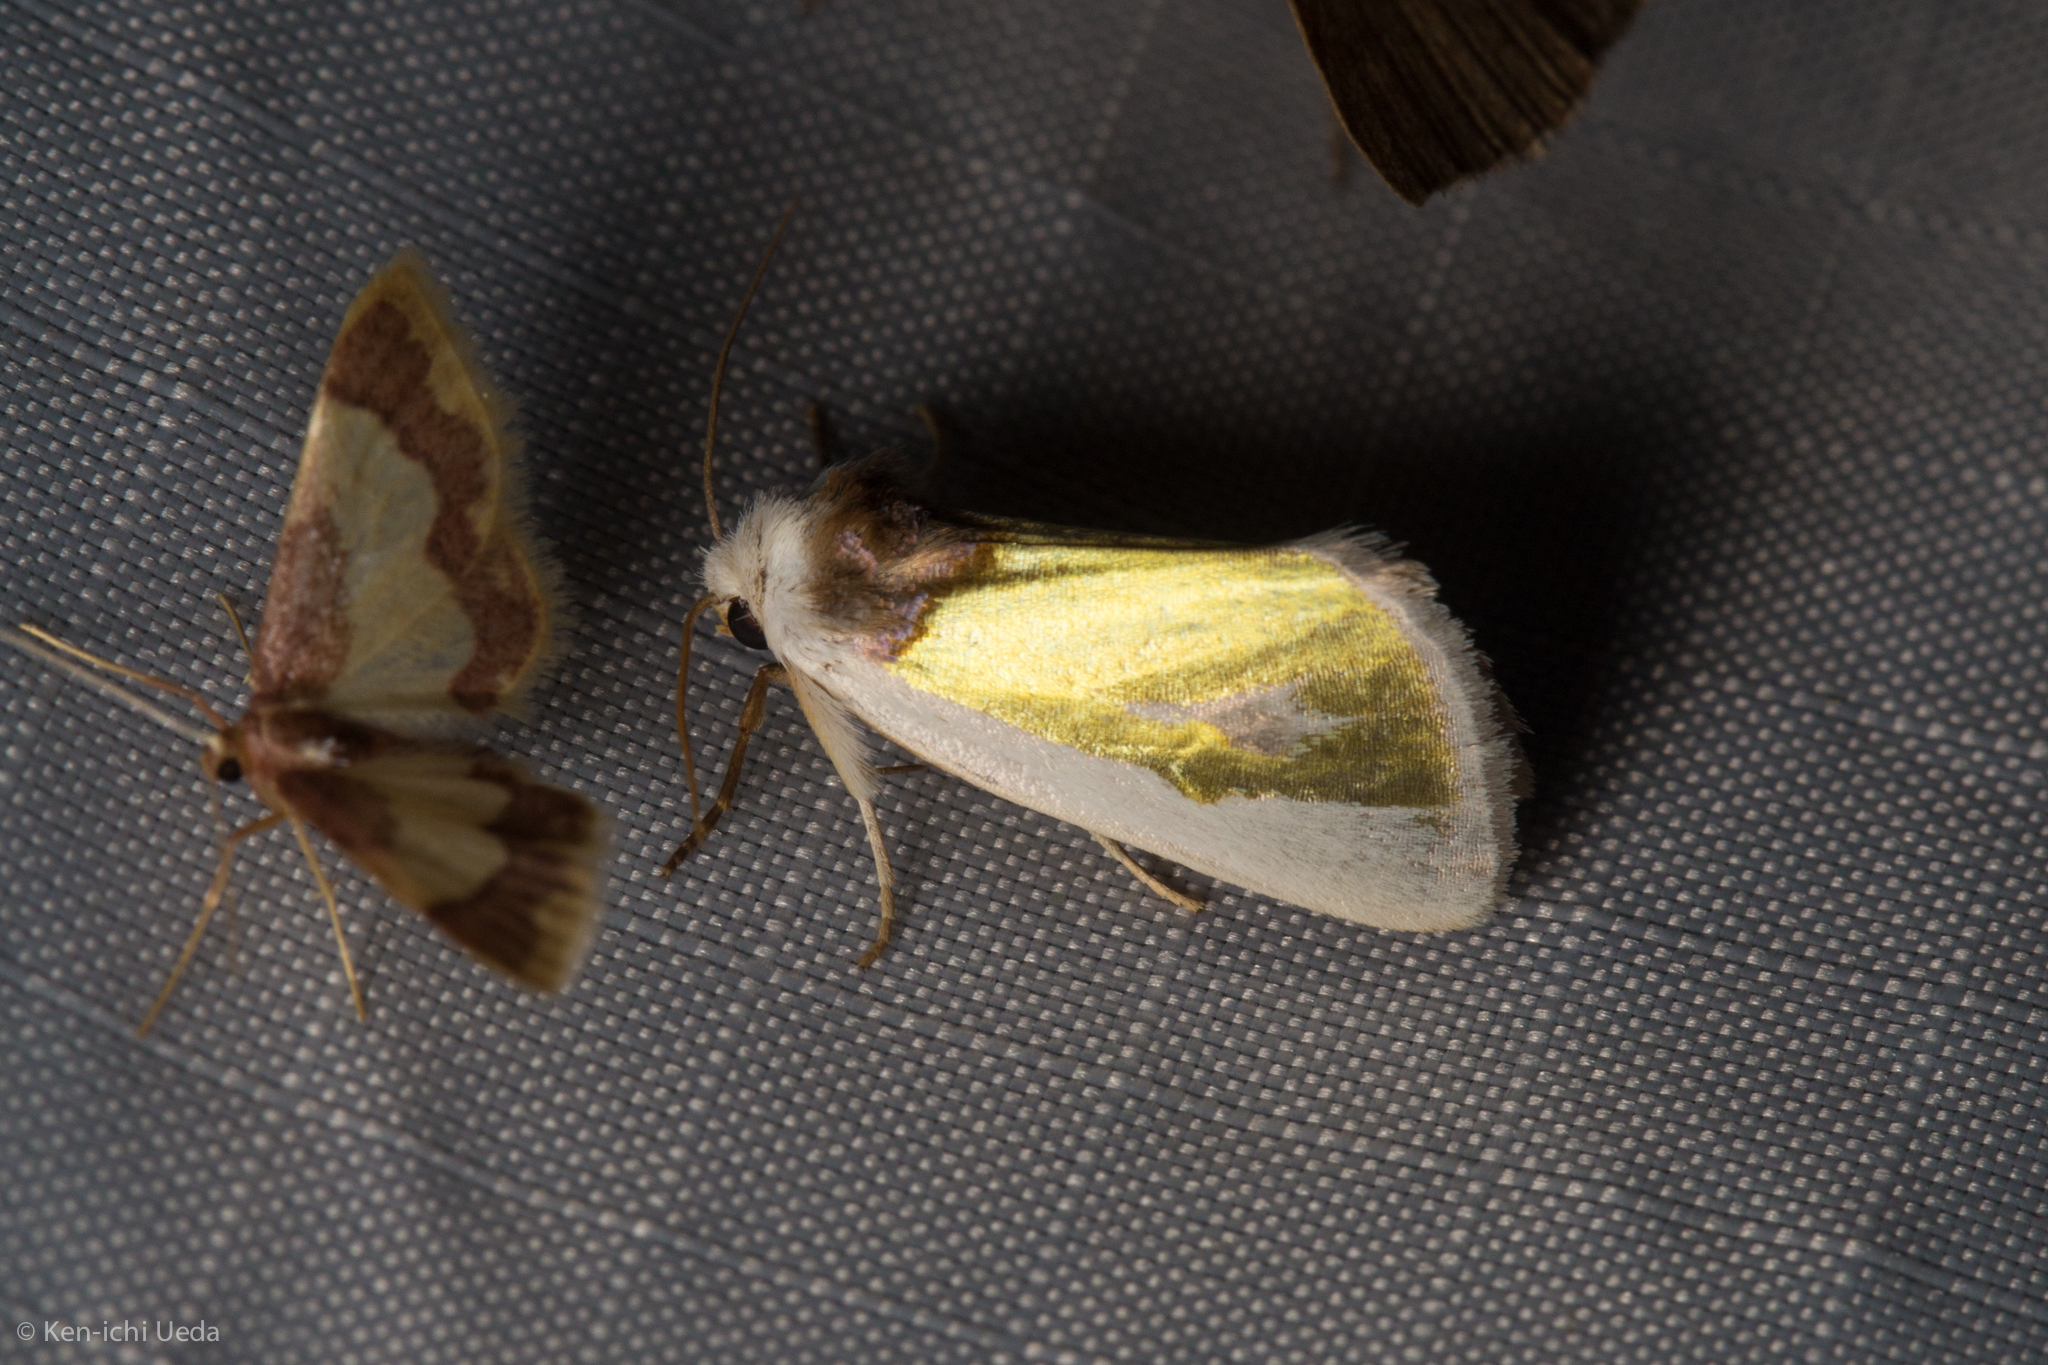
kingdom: Animalia
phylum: Arthropoda
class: Insecta
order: Lepidoptera
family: Noctuidae
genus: Neumoegenia
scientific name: Neumoegenia poetica
